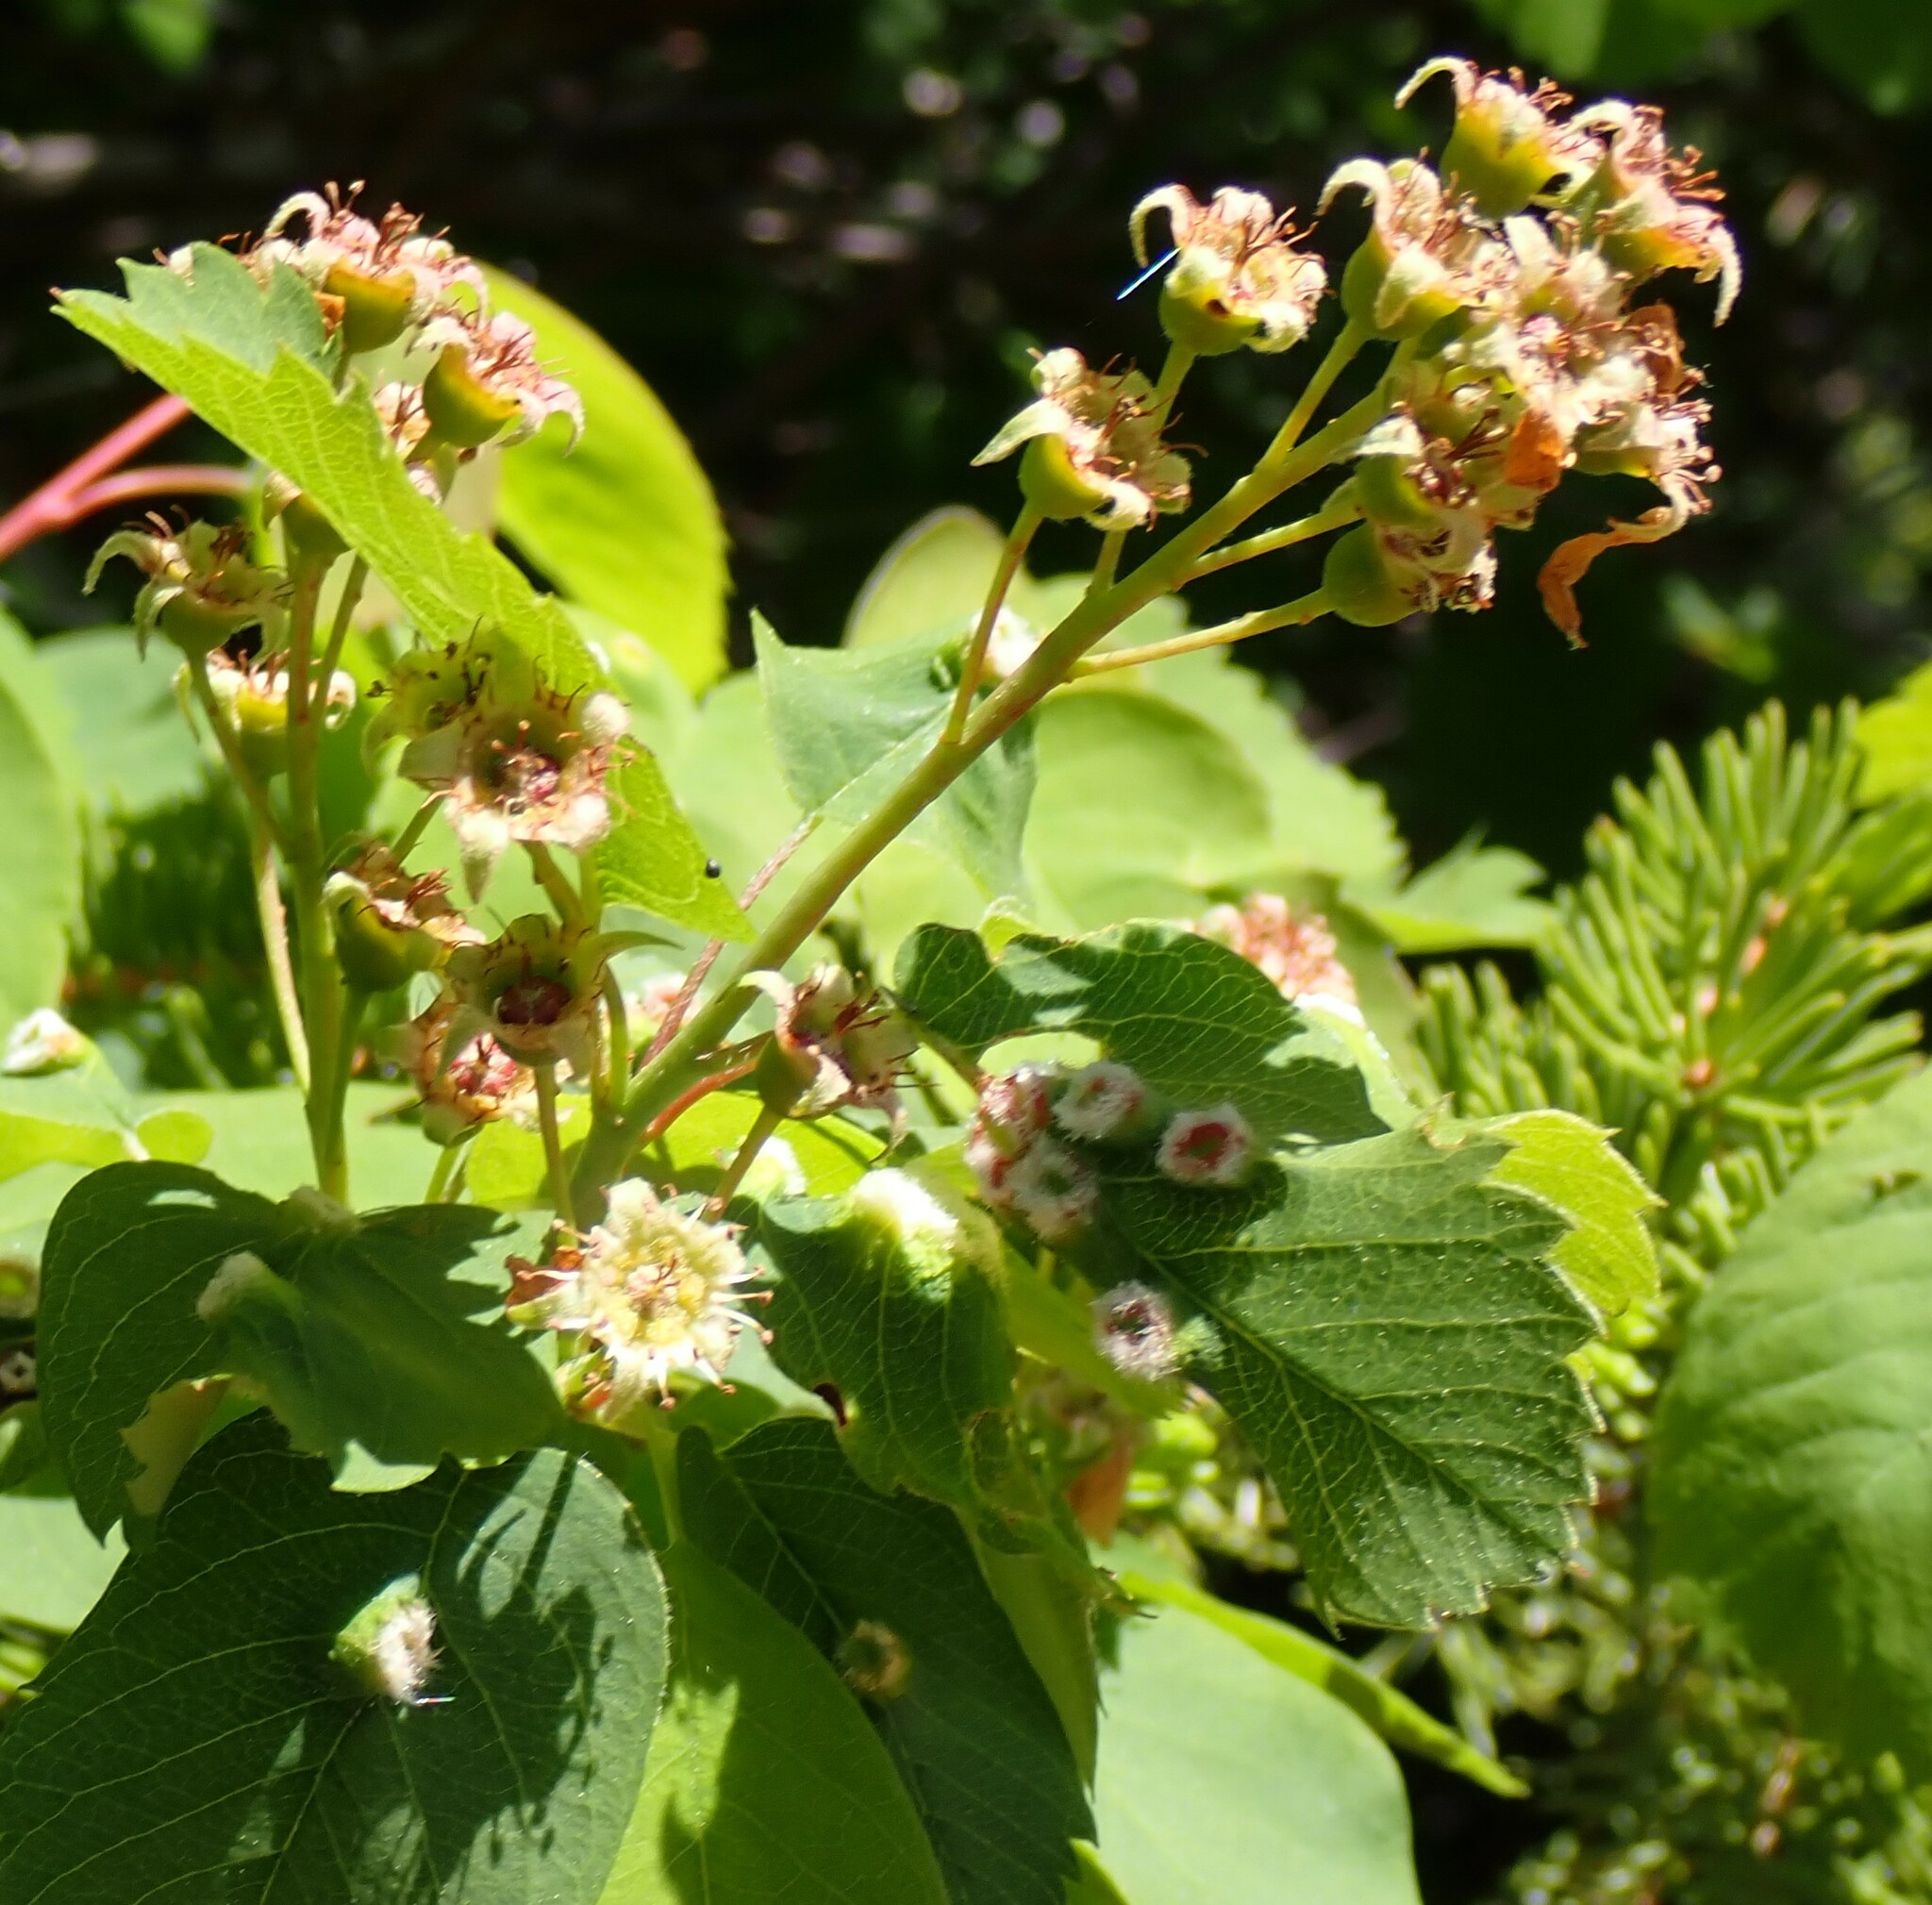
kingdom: Plantae
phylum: Tracheophyta
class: Magnoliopsida
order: Rosales
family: Rosaceae
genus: Amelanchier
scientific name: Amelanchier alnifolia
